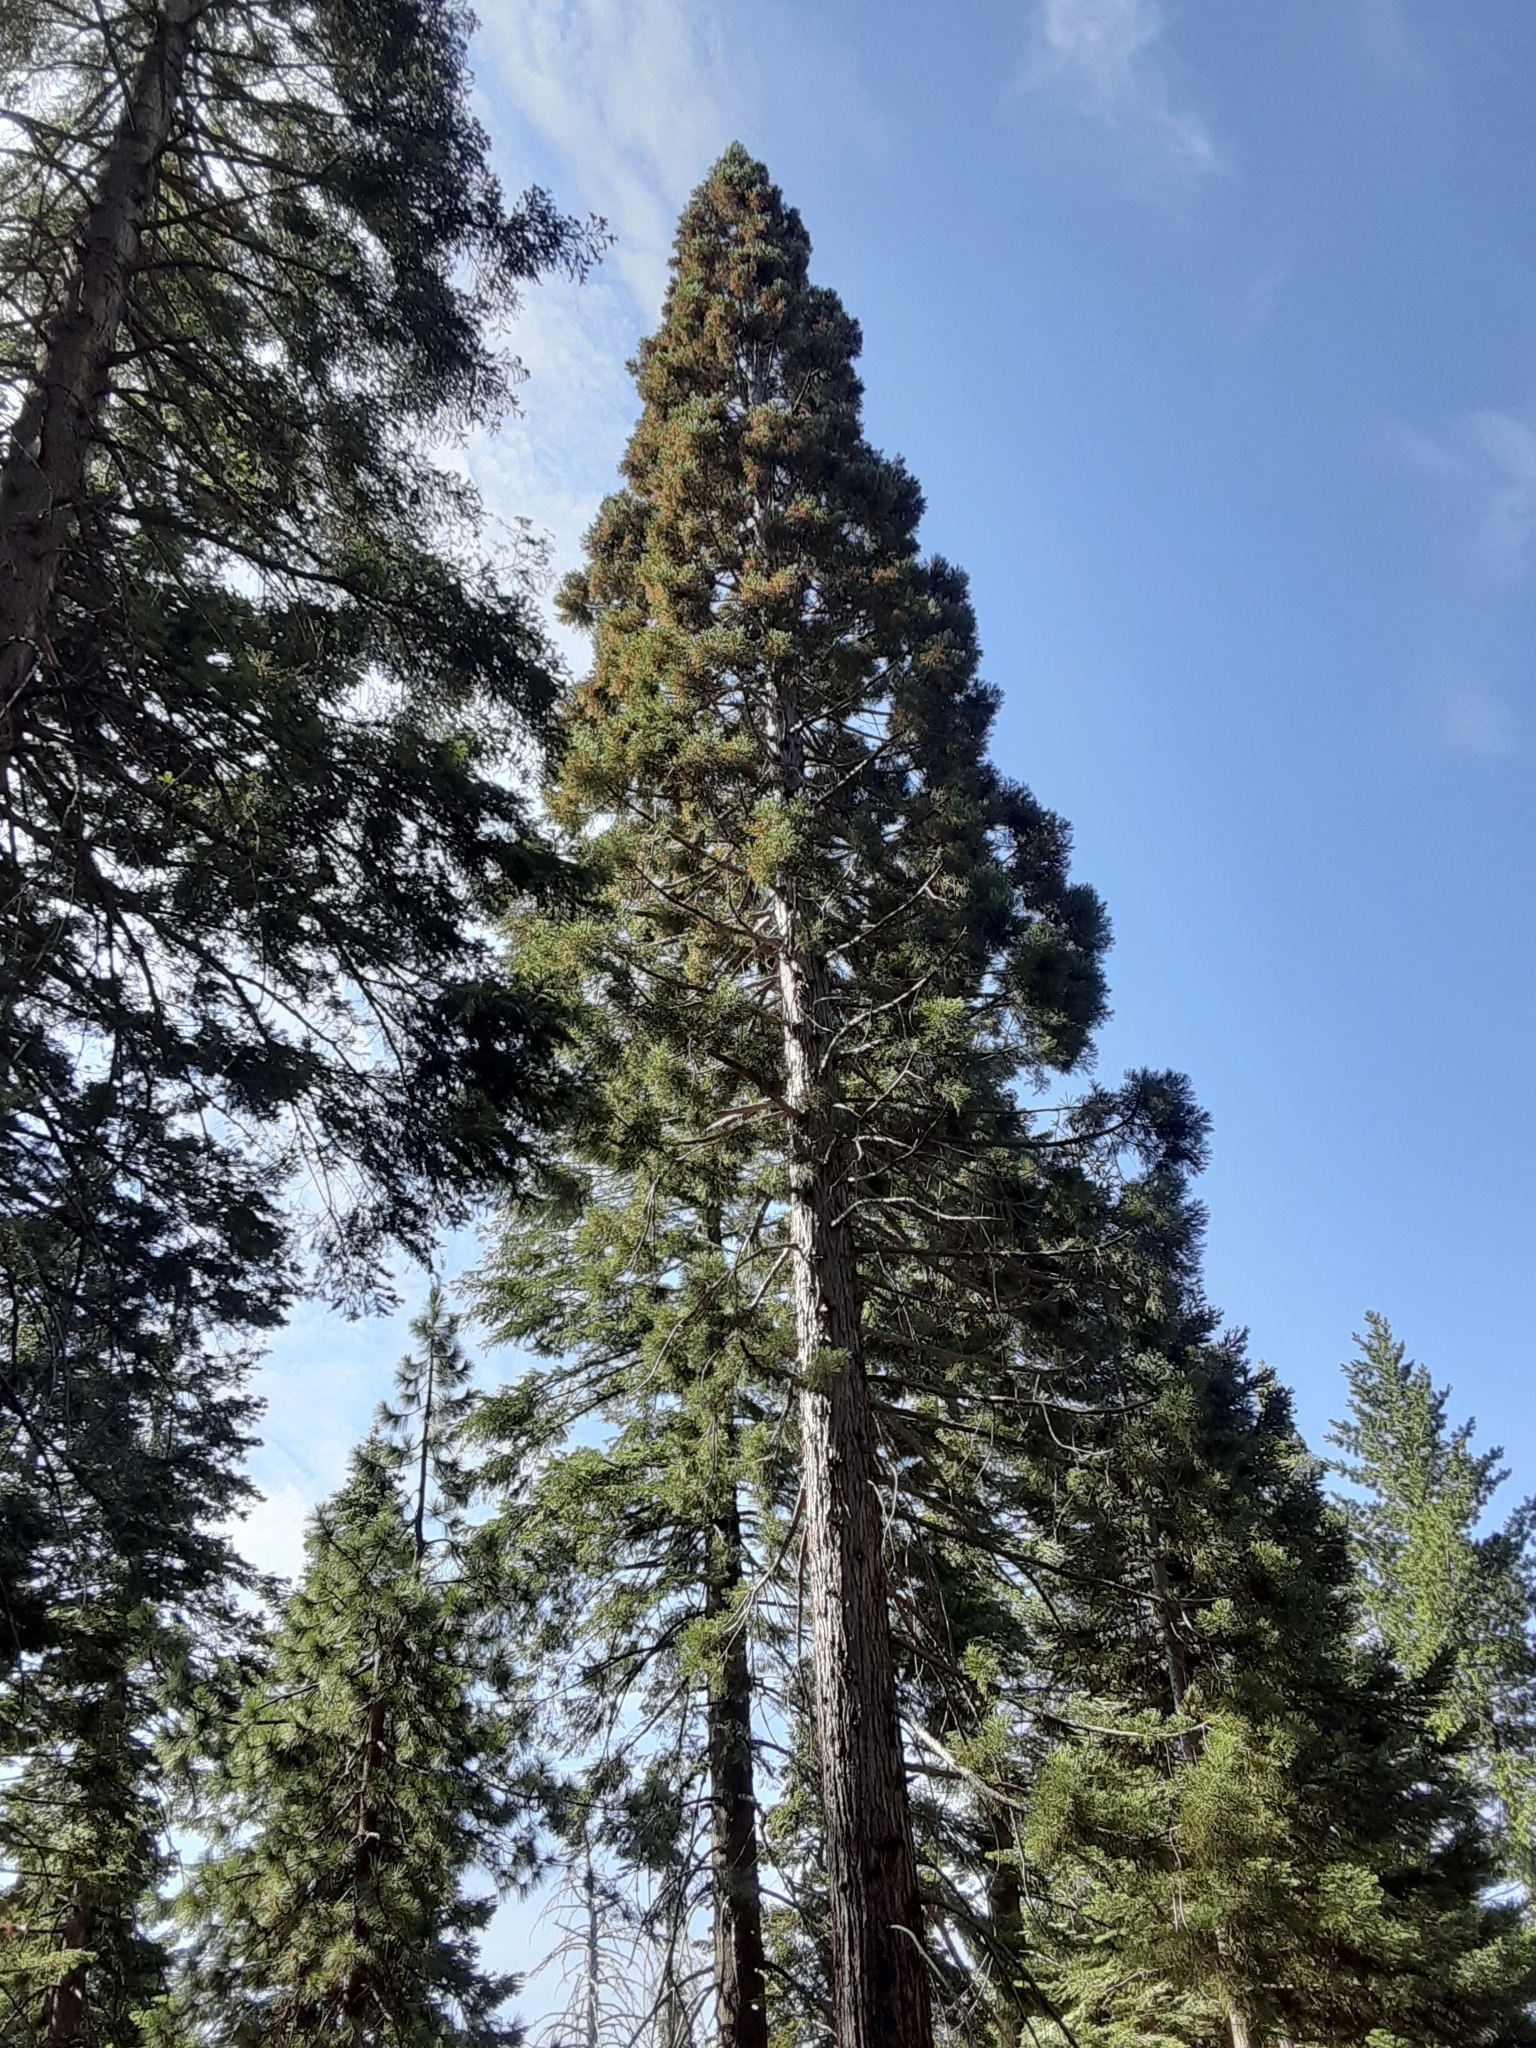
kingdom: Plantae
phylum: Tracheophyta
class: Pinopsida
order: Pinales
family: Cupressaceae
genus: Sequoiadendron
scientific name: Sequoiadendron giganteum
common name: Wellingtonia
